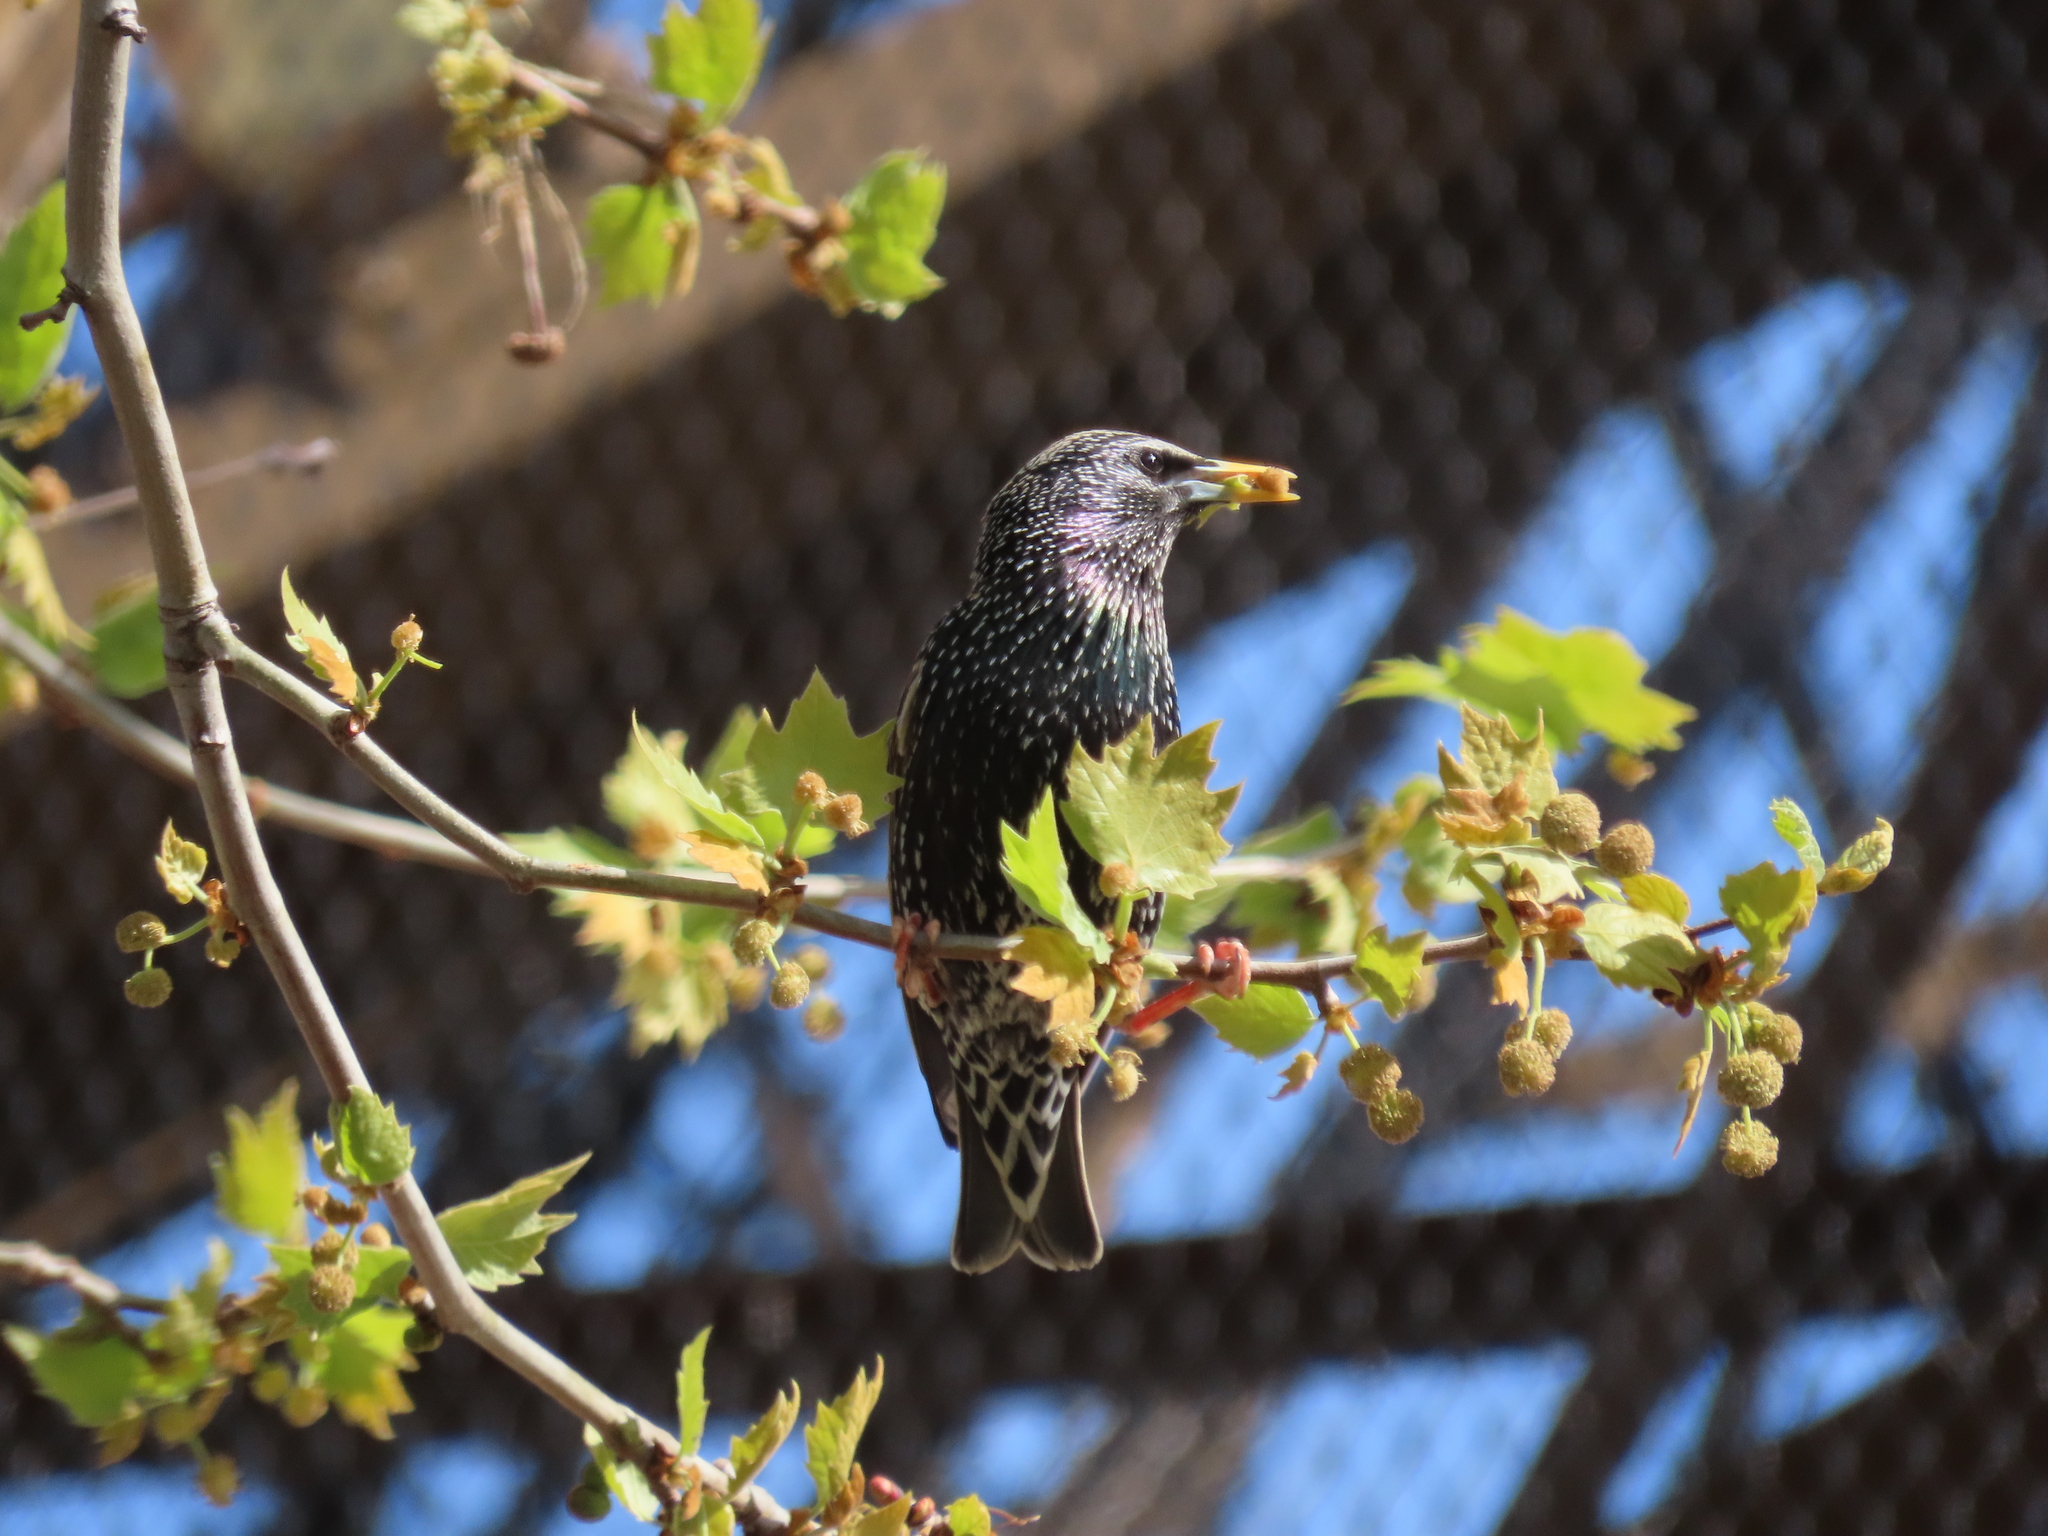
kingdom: Animalia
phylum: Chordata
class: Aves
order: Passeriformes
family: Sturnidae
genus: Sturnus
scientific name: Sturnus vulgaris
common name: Common starling
